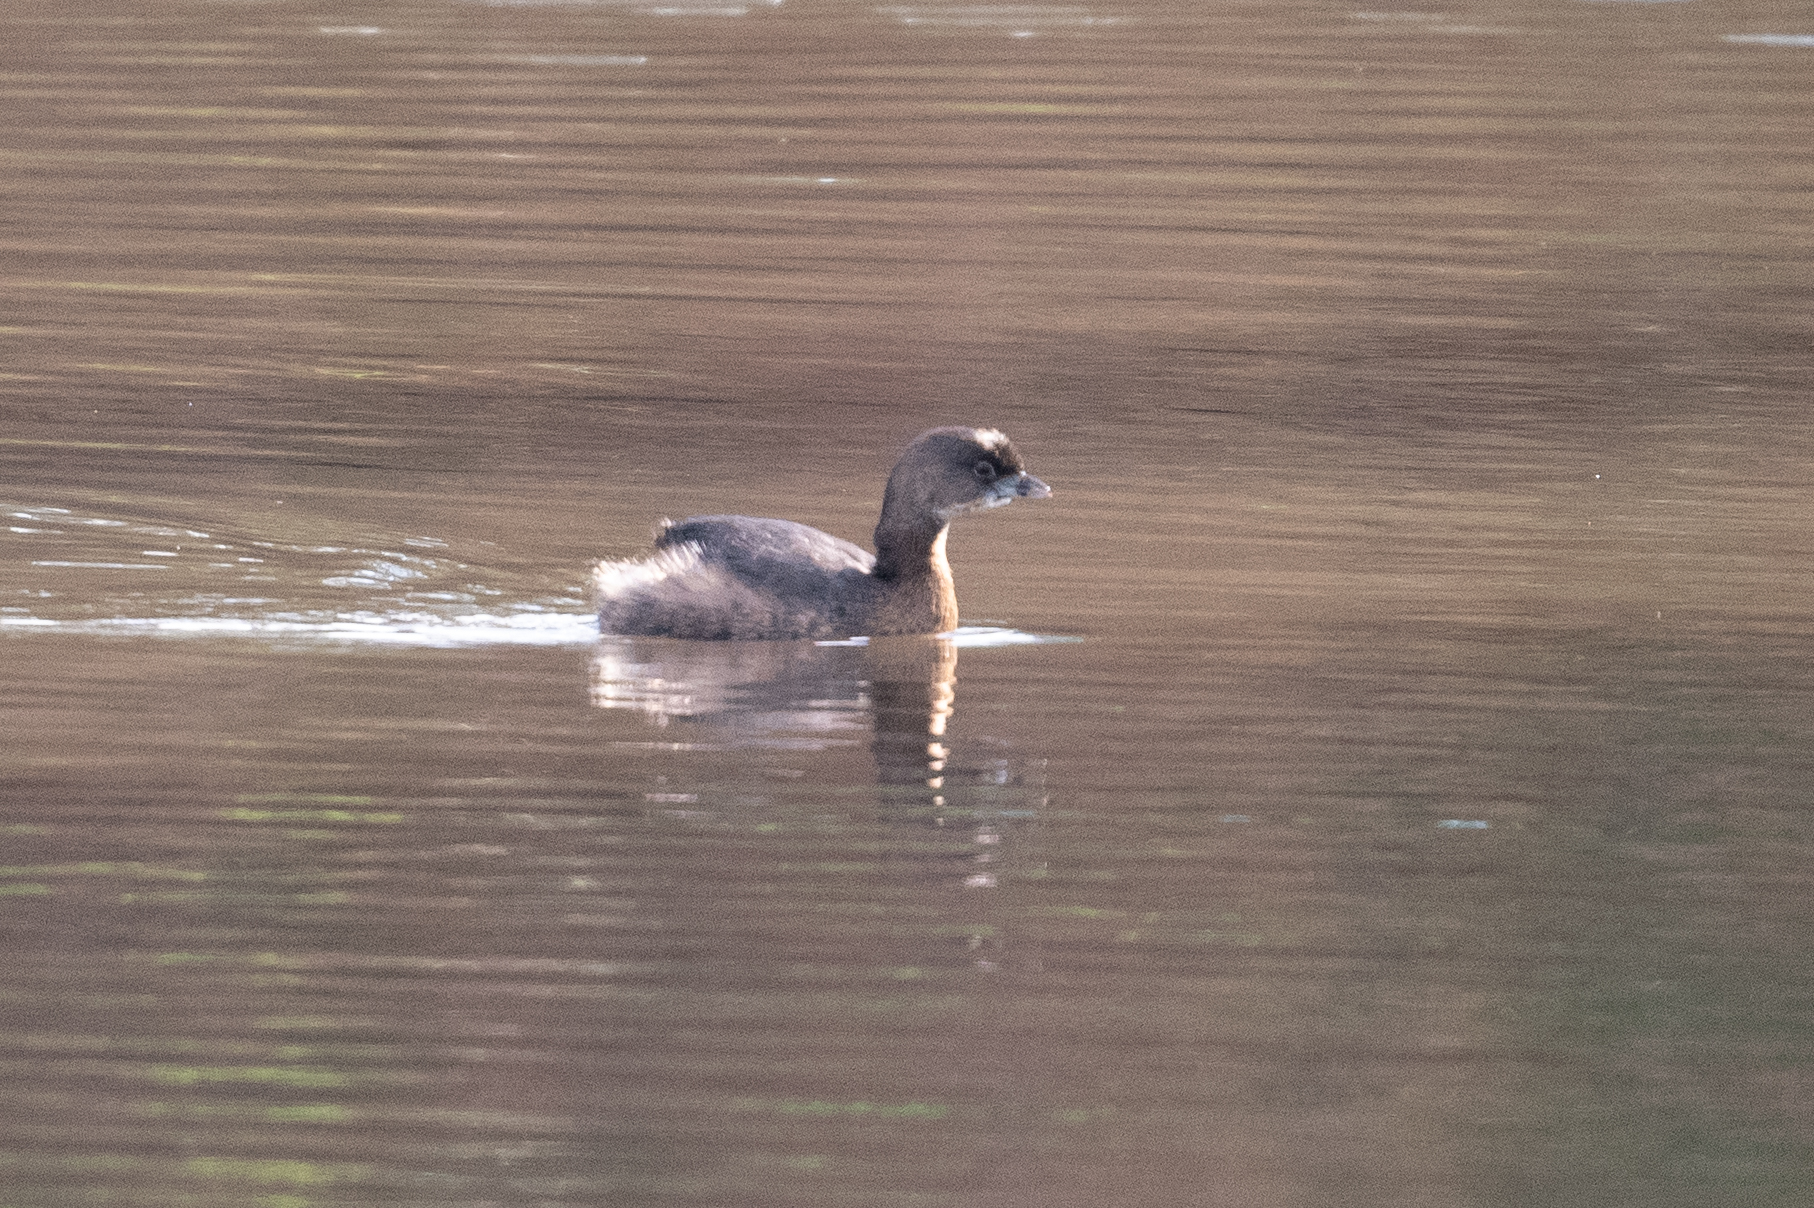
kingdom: Animalia
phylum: Chordata
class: Aves
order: Podicipediformes
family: Podicipedidae
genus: Podilymbus
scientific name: Podilymbus podiceps
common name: Pied-billed grebe
